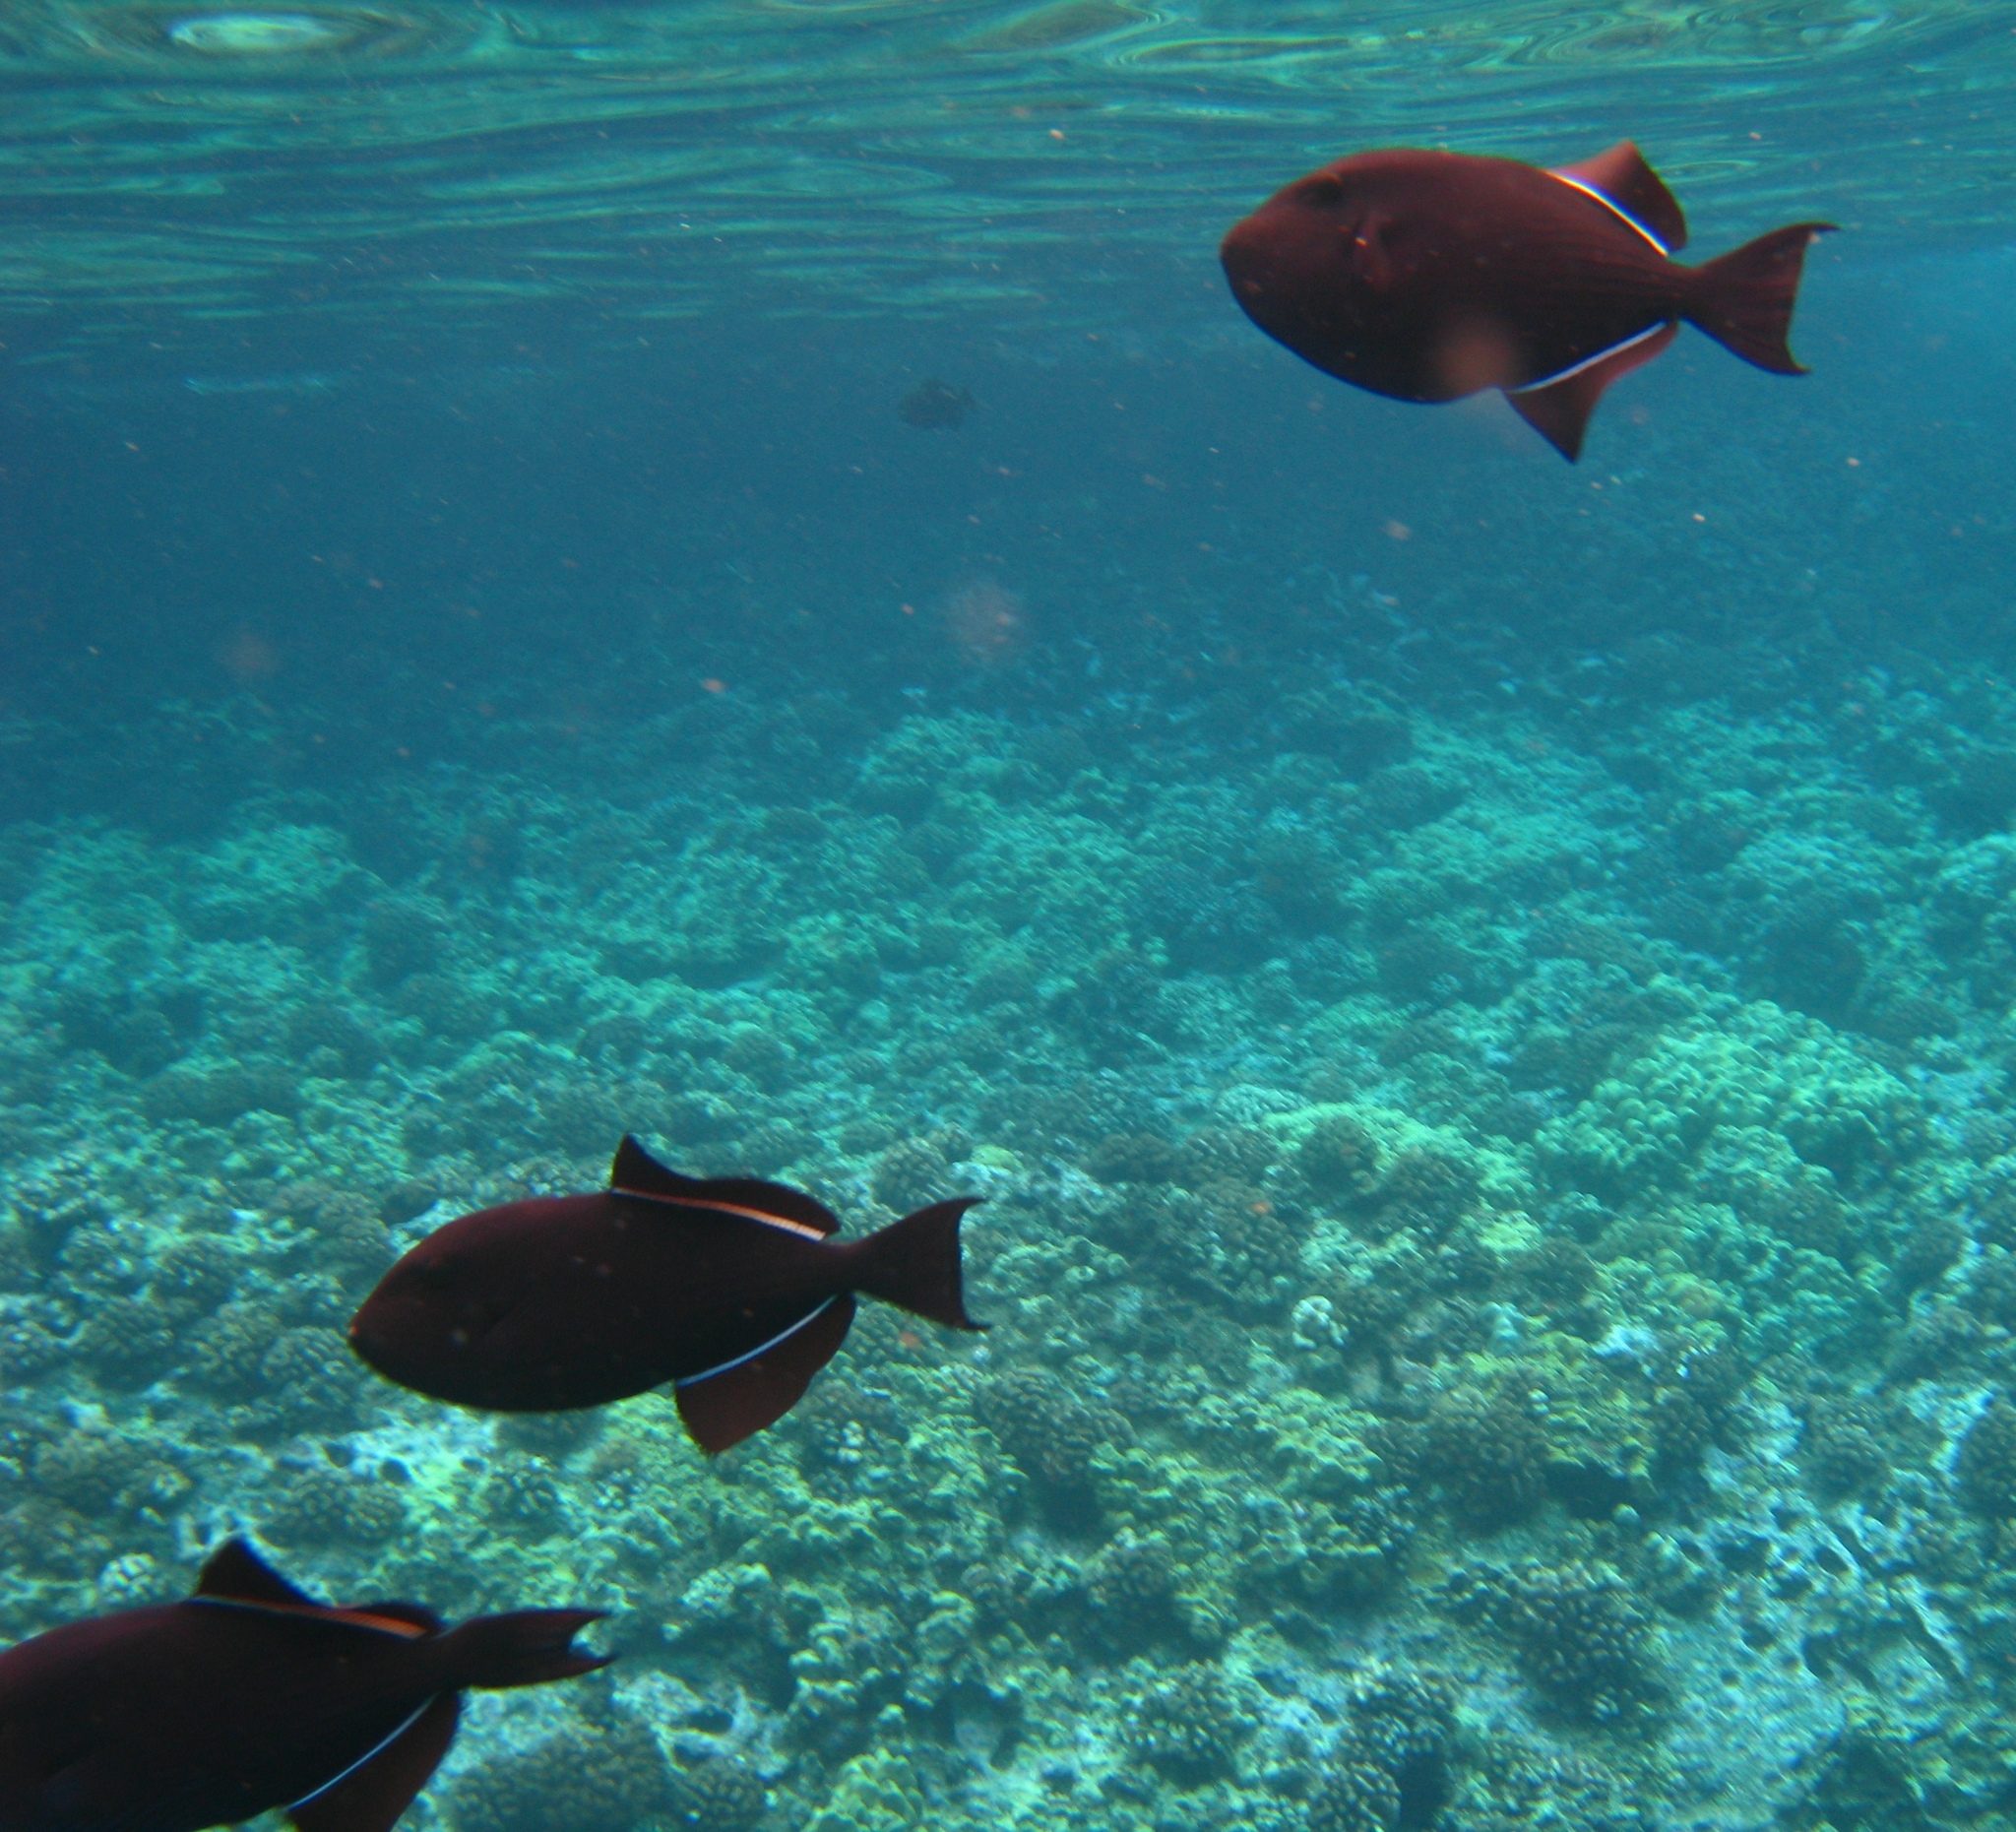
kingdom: Animalia
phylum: Chordata
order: Tetraodontiformes
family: Balistidae
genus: Melichthys
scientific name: Melichthys niger
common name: Black durgon
